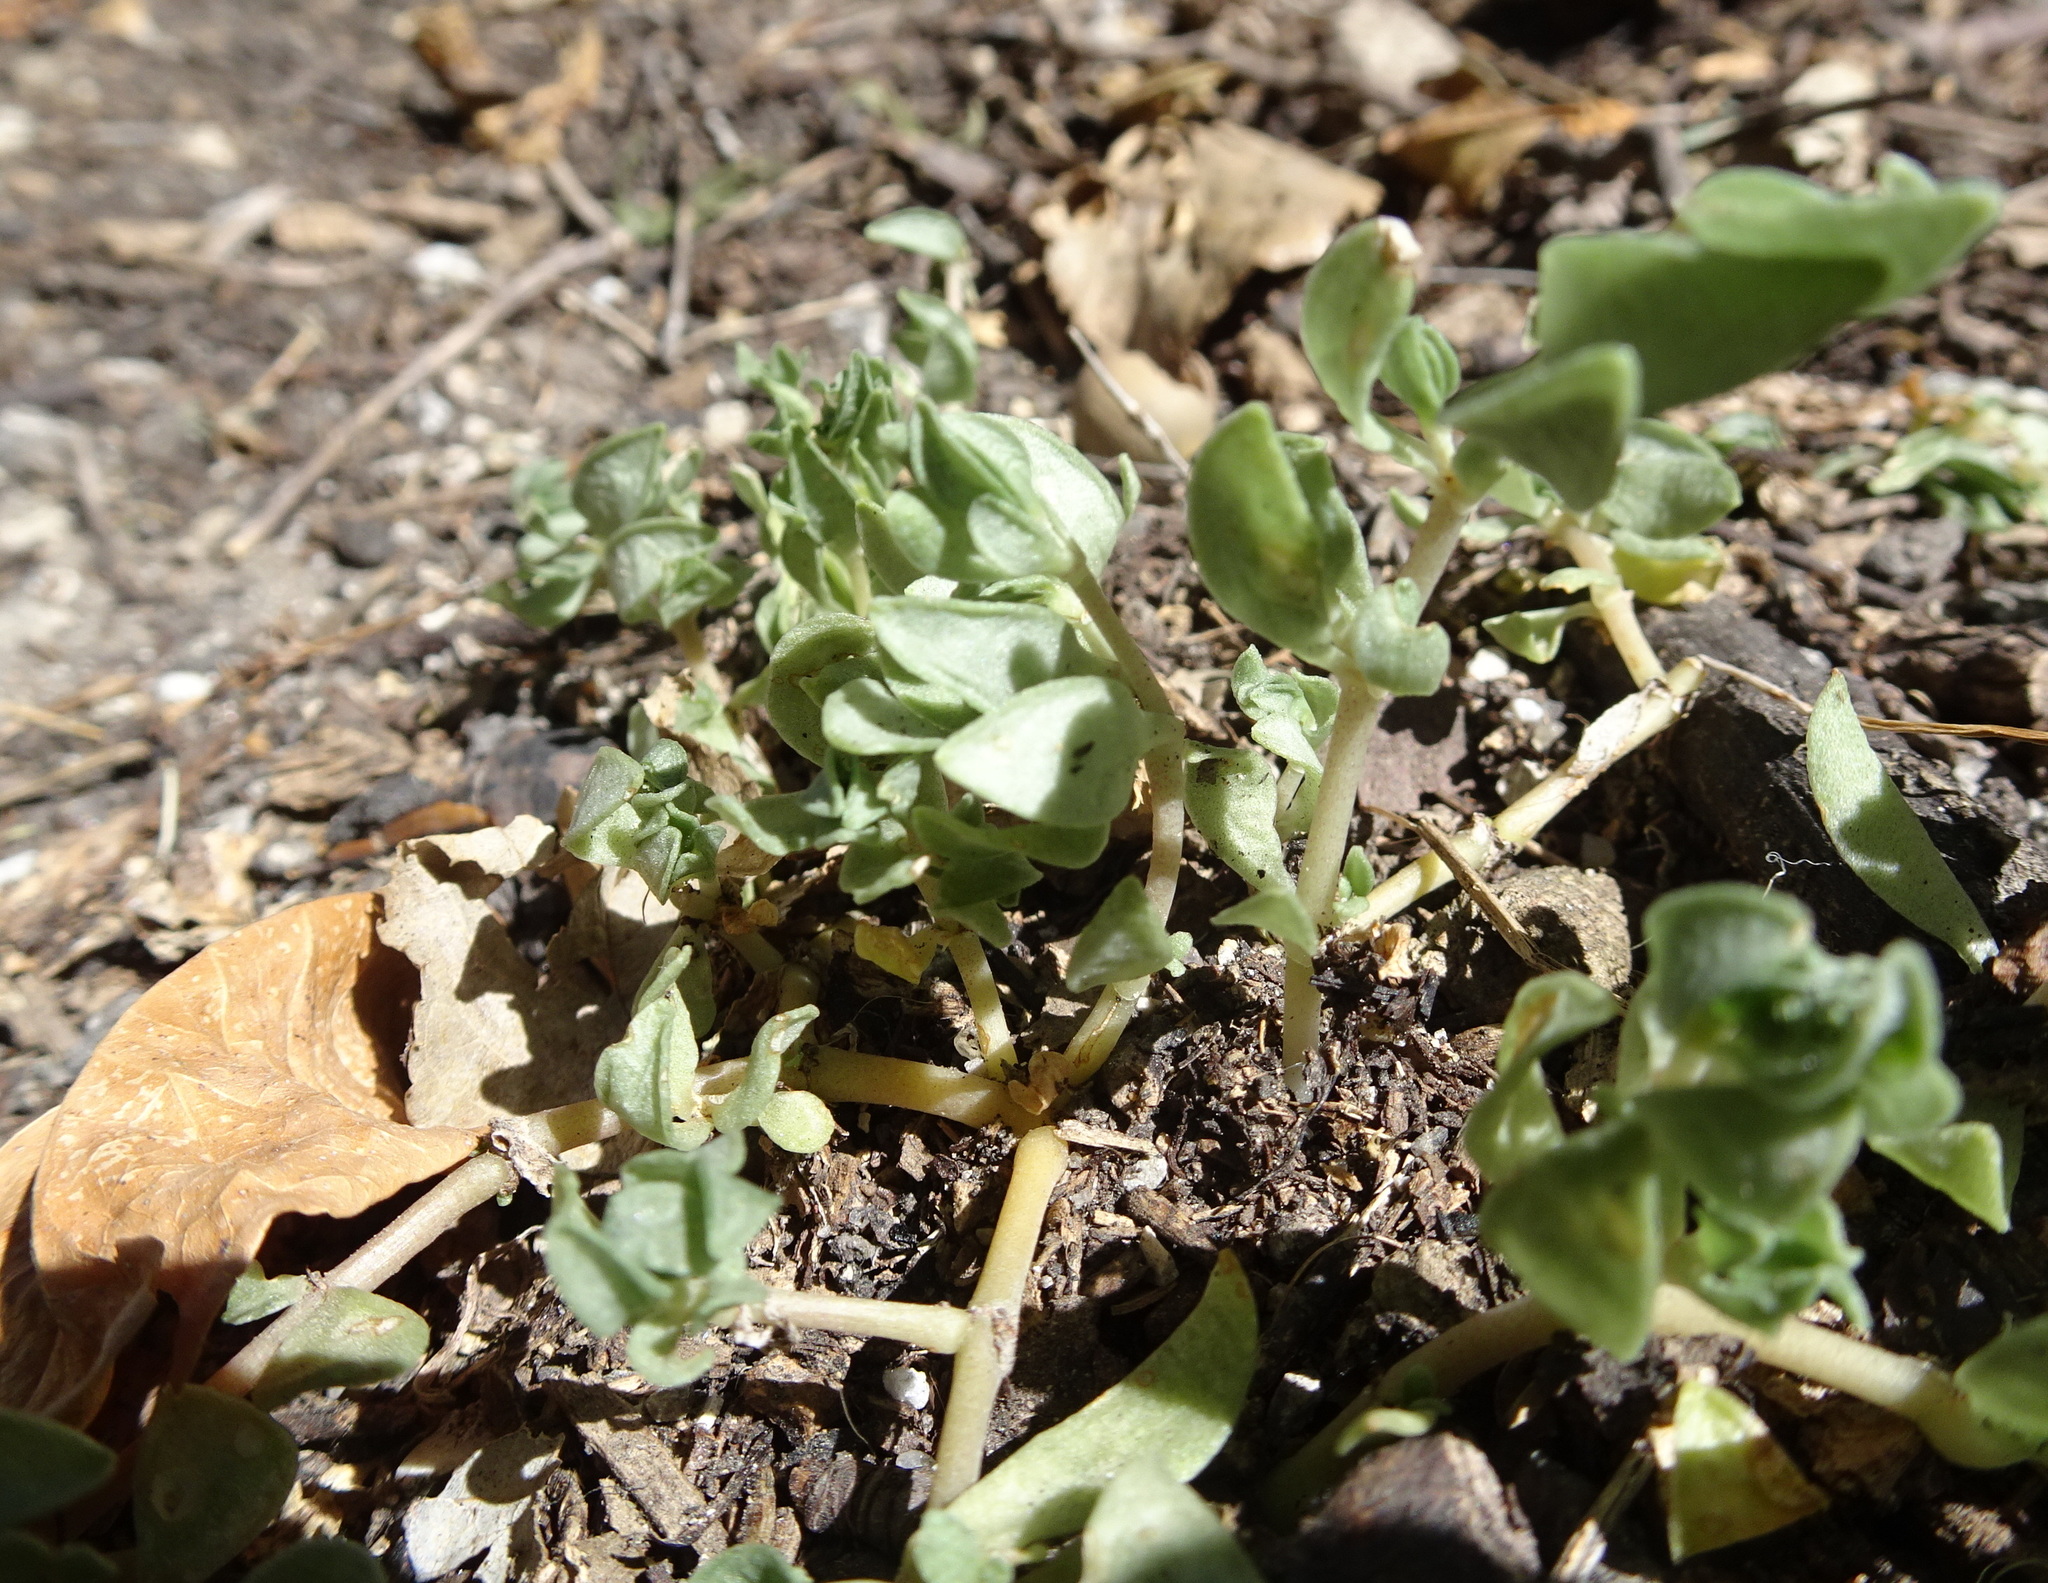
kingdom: Plantae
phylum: Tracheophyta
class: Magnoliopsida
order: Saxifragales
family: Crassulaceae
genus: Sedum
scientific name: Sedum sarmentosum
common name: Stringy stonecrop
